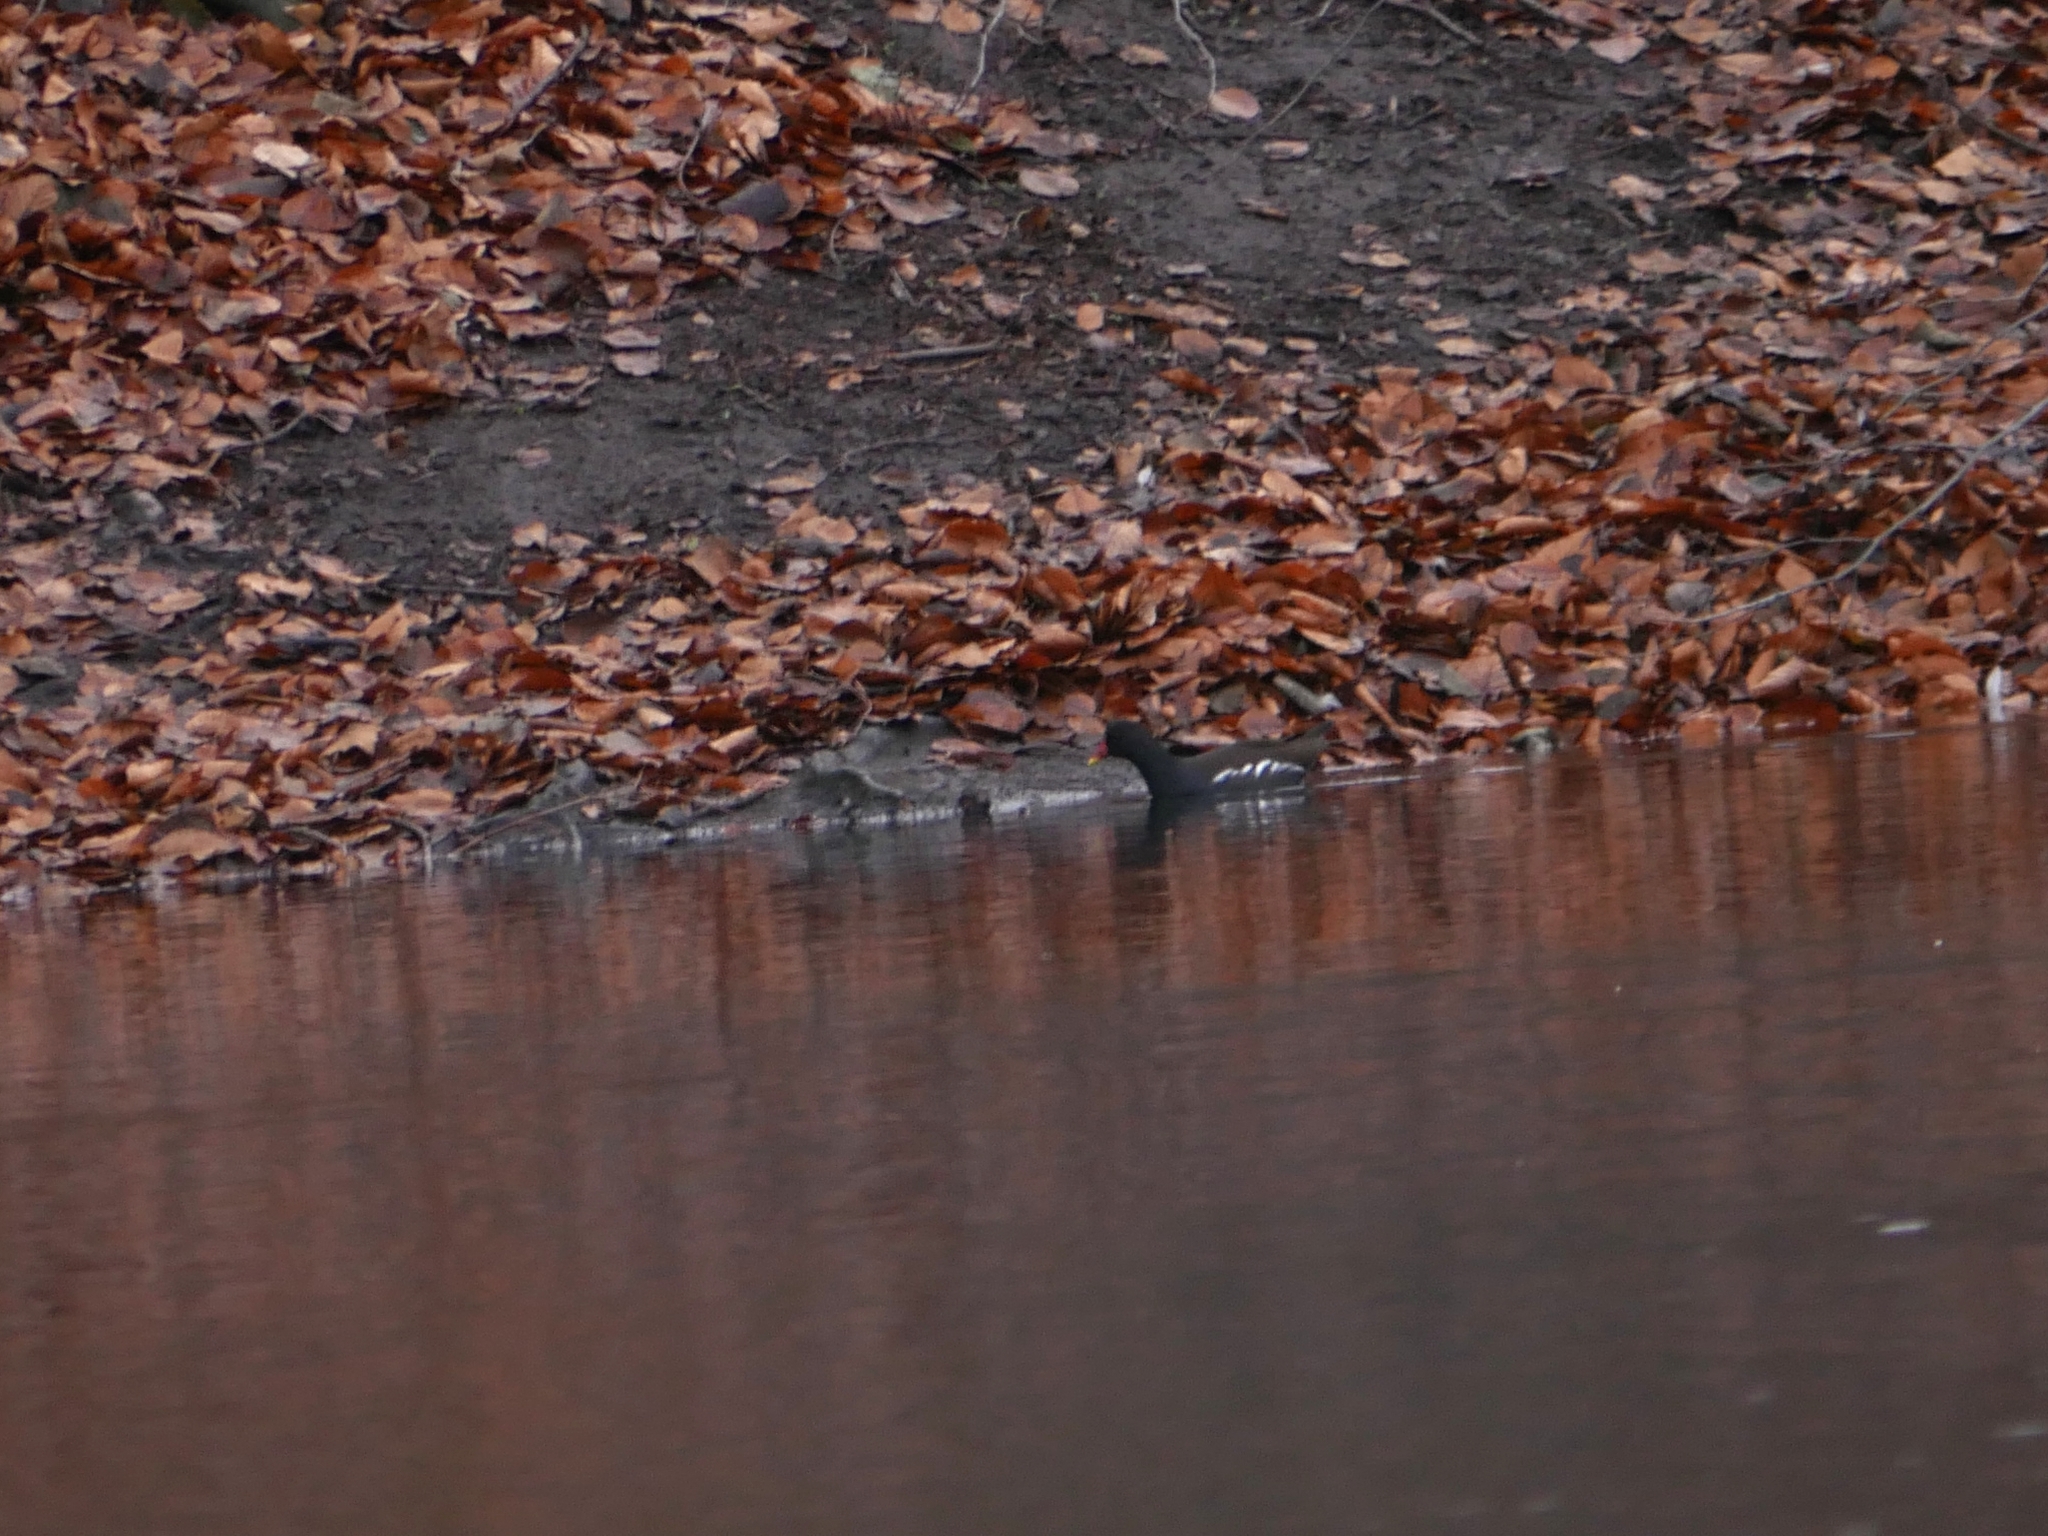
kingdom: Animalia
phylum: Chordata
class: Aves
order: Gruiformes
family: Rallidae
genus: Gallinula
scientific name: Gallinula chloropus
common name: Common moorhen
